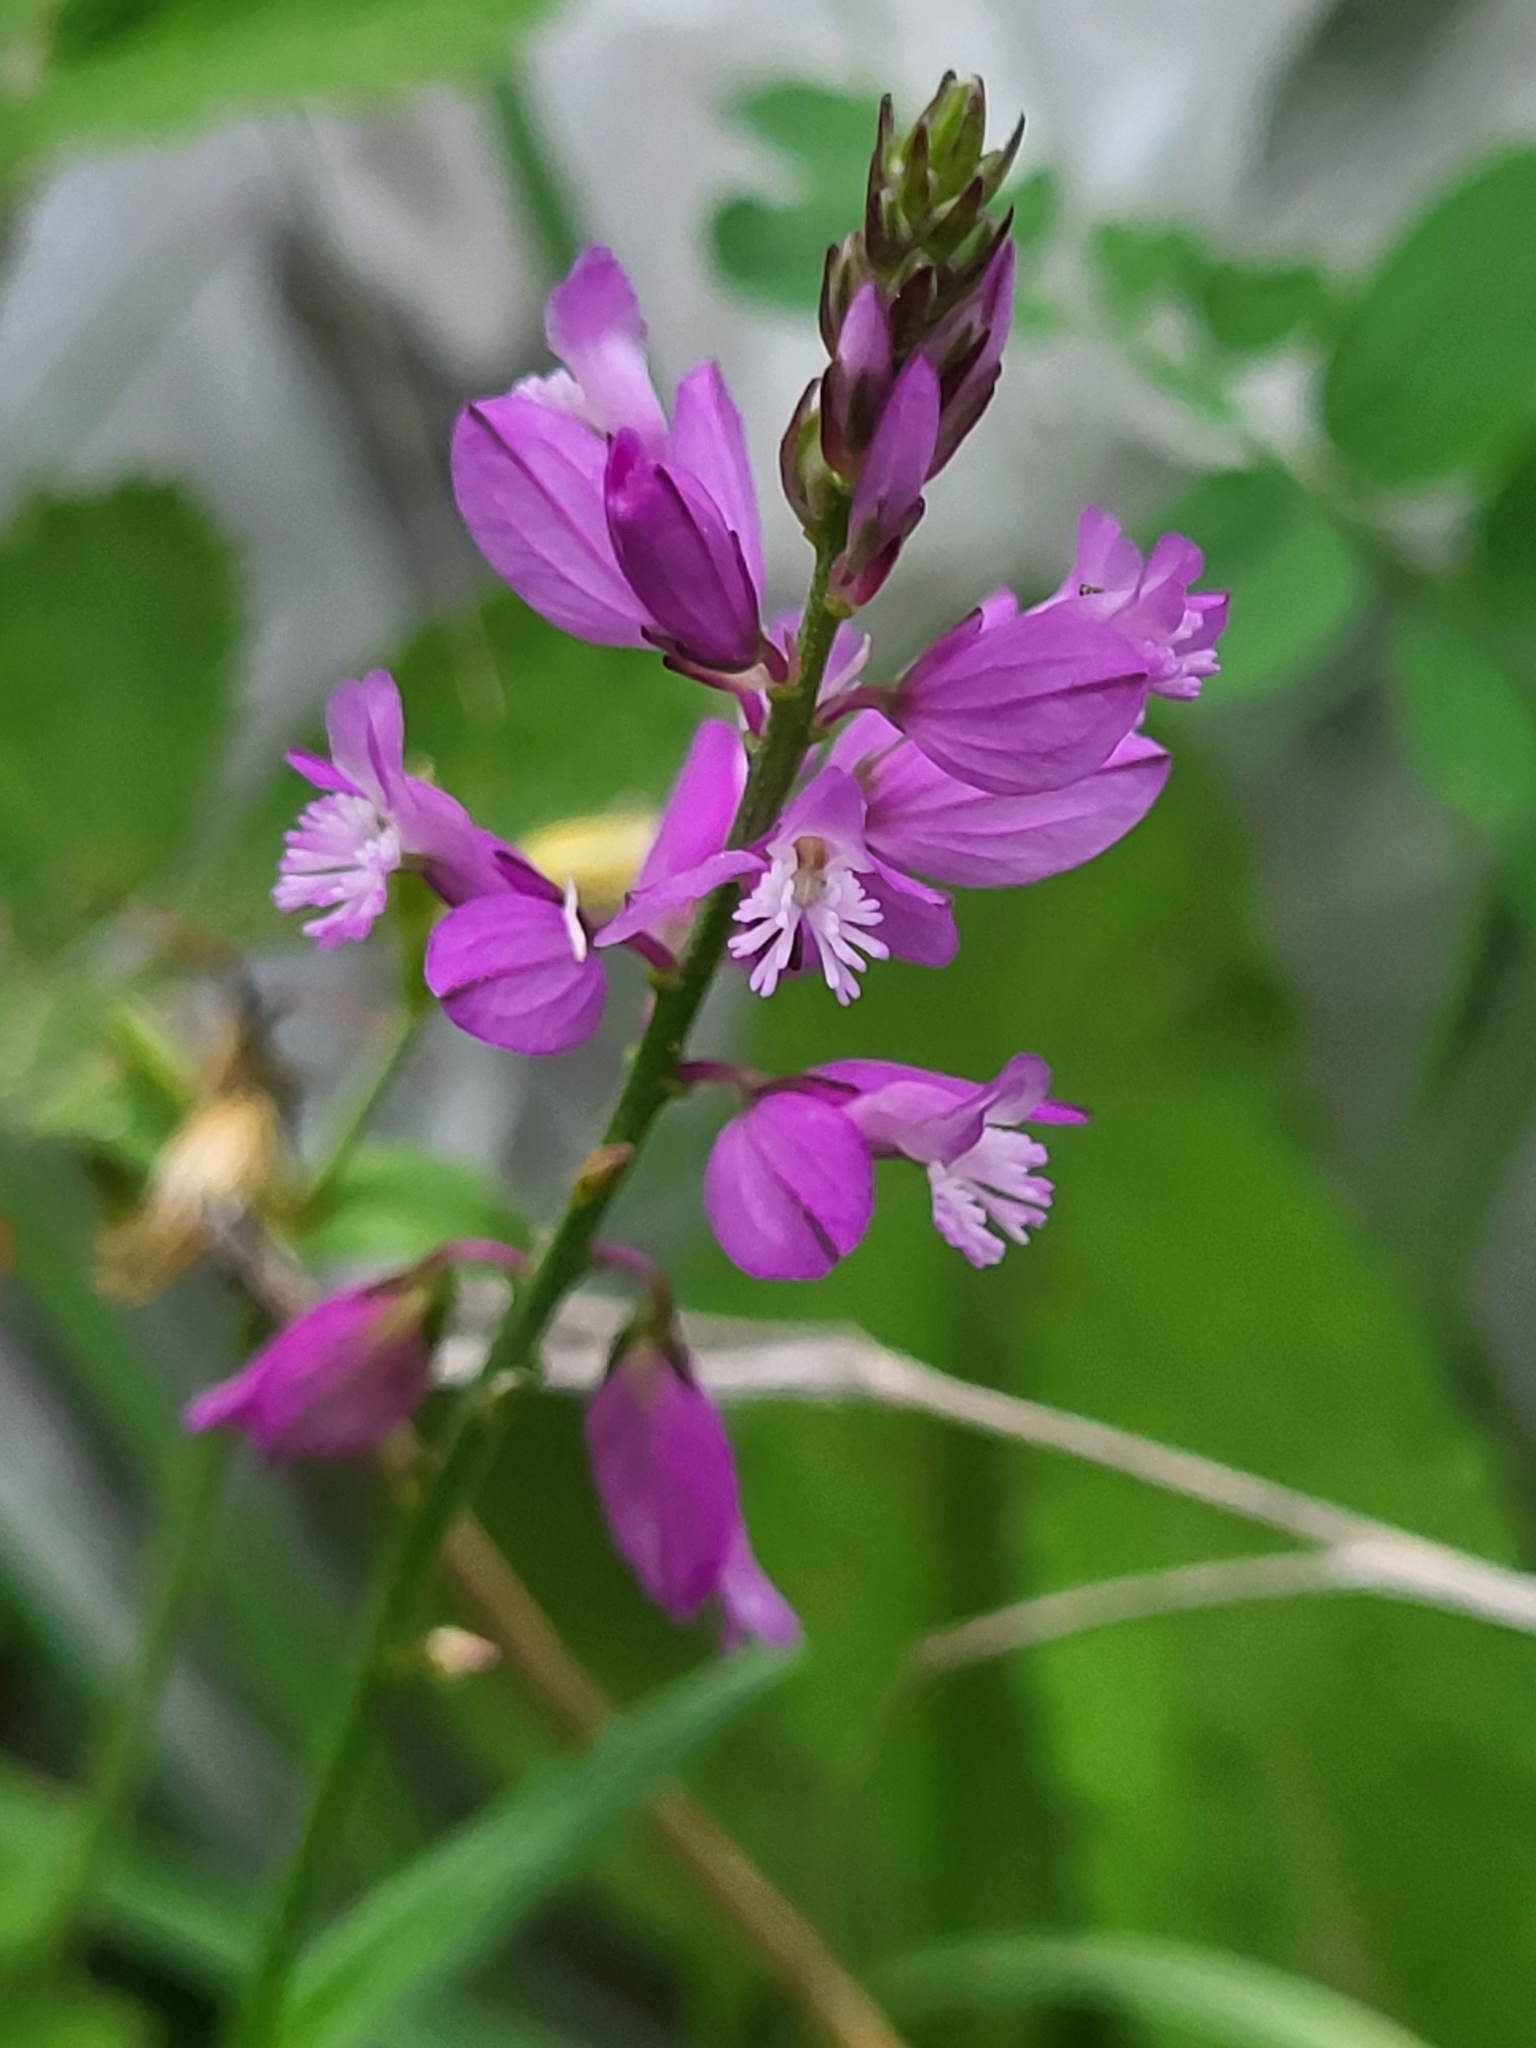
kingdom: Plantae
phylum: Tracheophyta
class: Magnoliopsida
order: Fabales
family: Polygalaceae
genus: Polygala
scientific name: Polygala major
